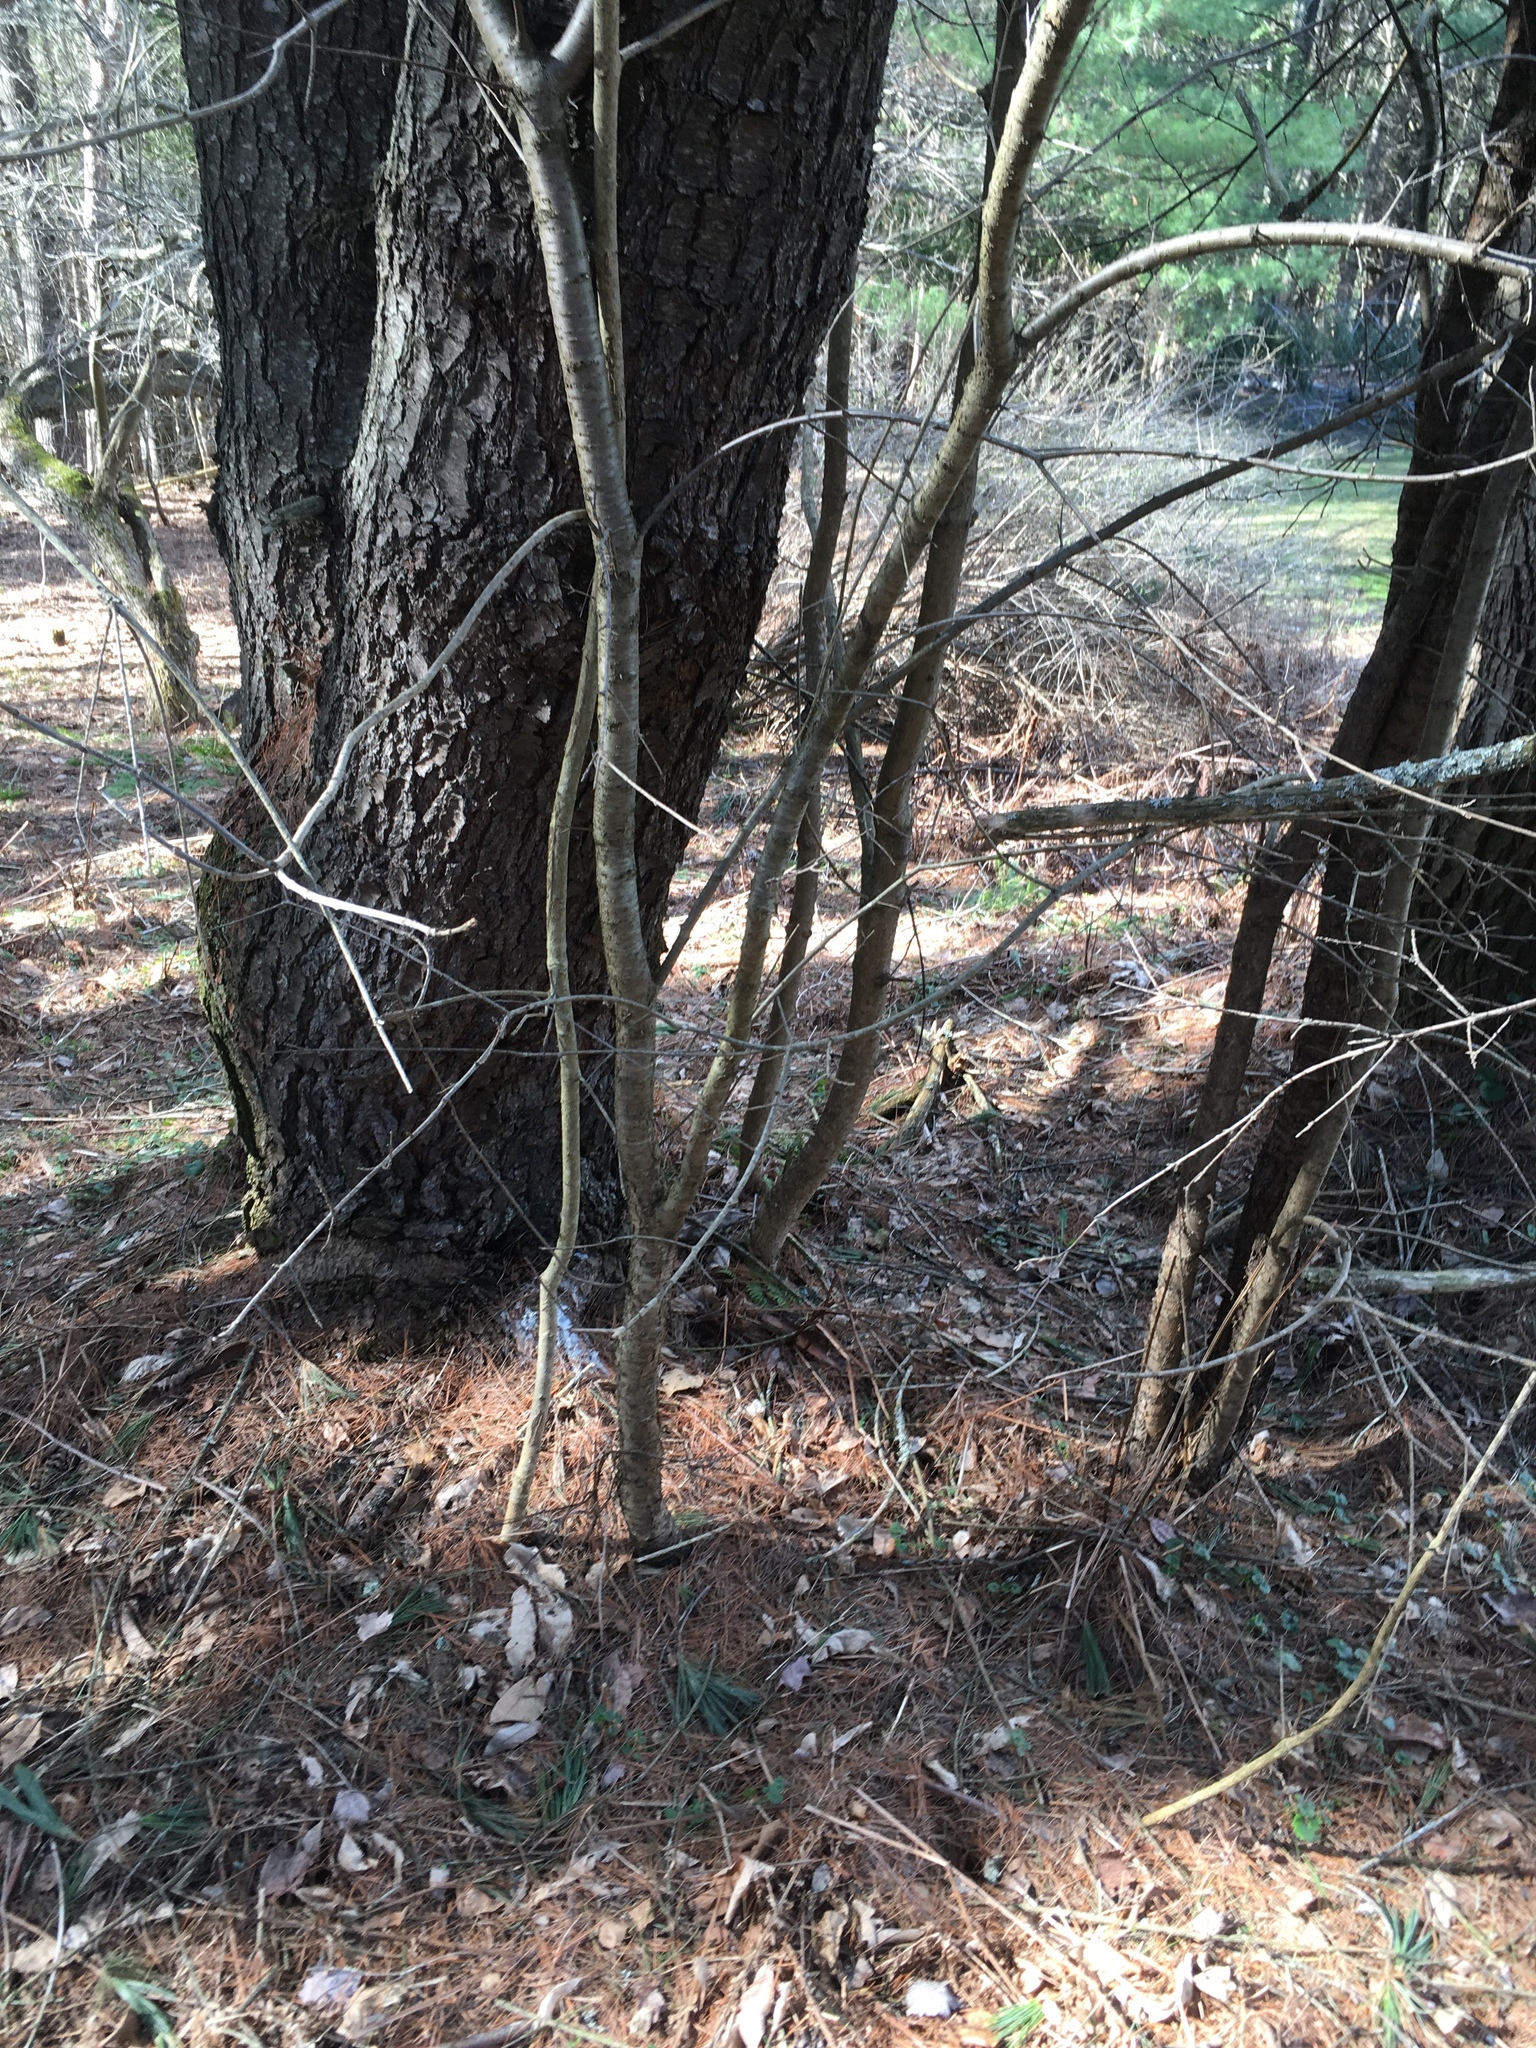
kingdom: Plantae
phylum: Tracheophyta
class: Magnoliopsida
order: Rosales
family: Rhamnaceae
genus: Rhamnus
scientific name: Rhamnus cathartica
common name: Common buckthorn
